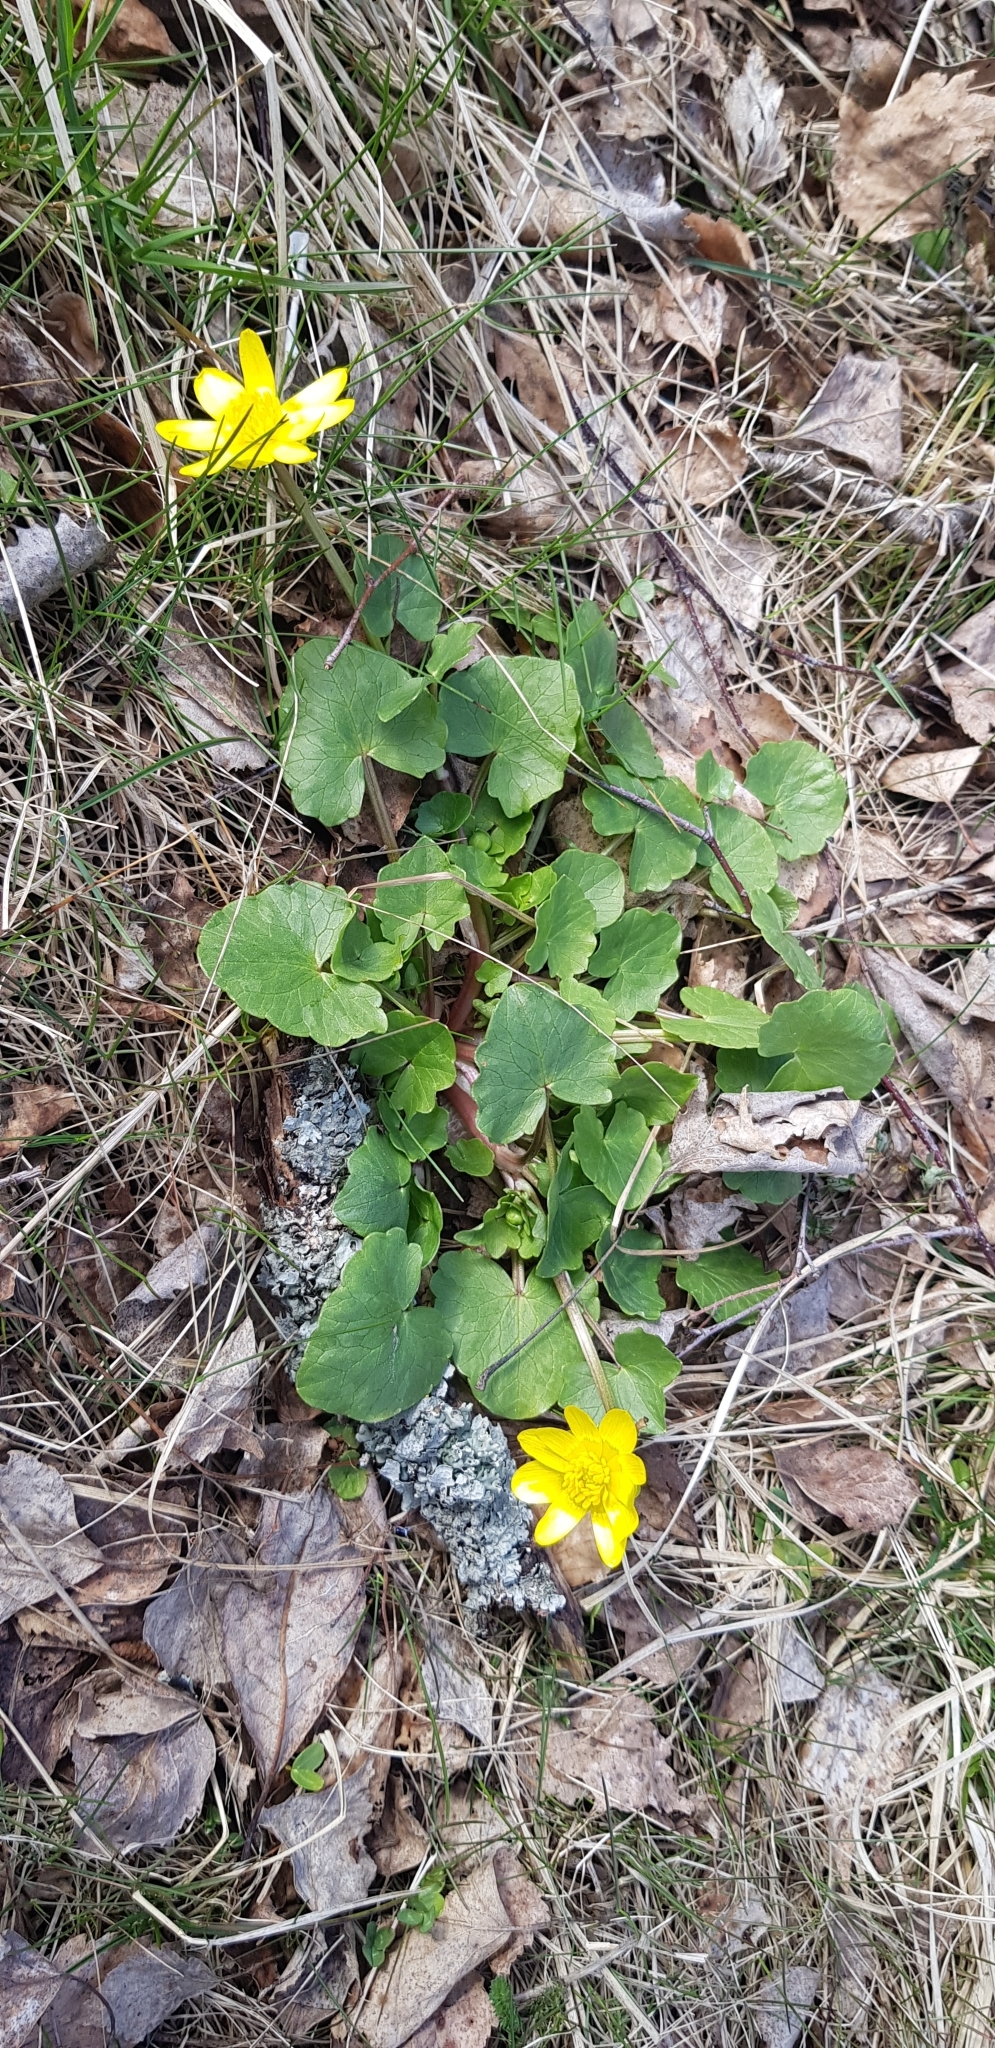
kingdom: Plantae
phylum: Tracheophyta
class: Magnoliopsida
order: Ranunculales
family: Ranunculaceae
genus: Ficaria
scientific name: Ficaria verna
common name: Lesser celandine
